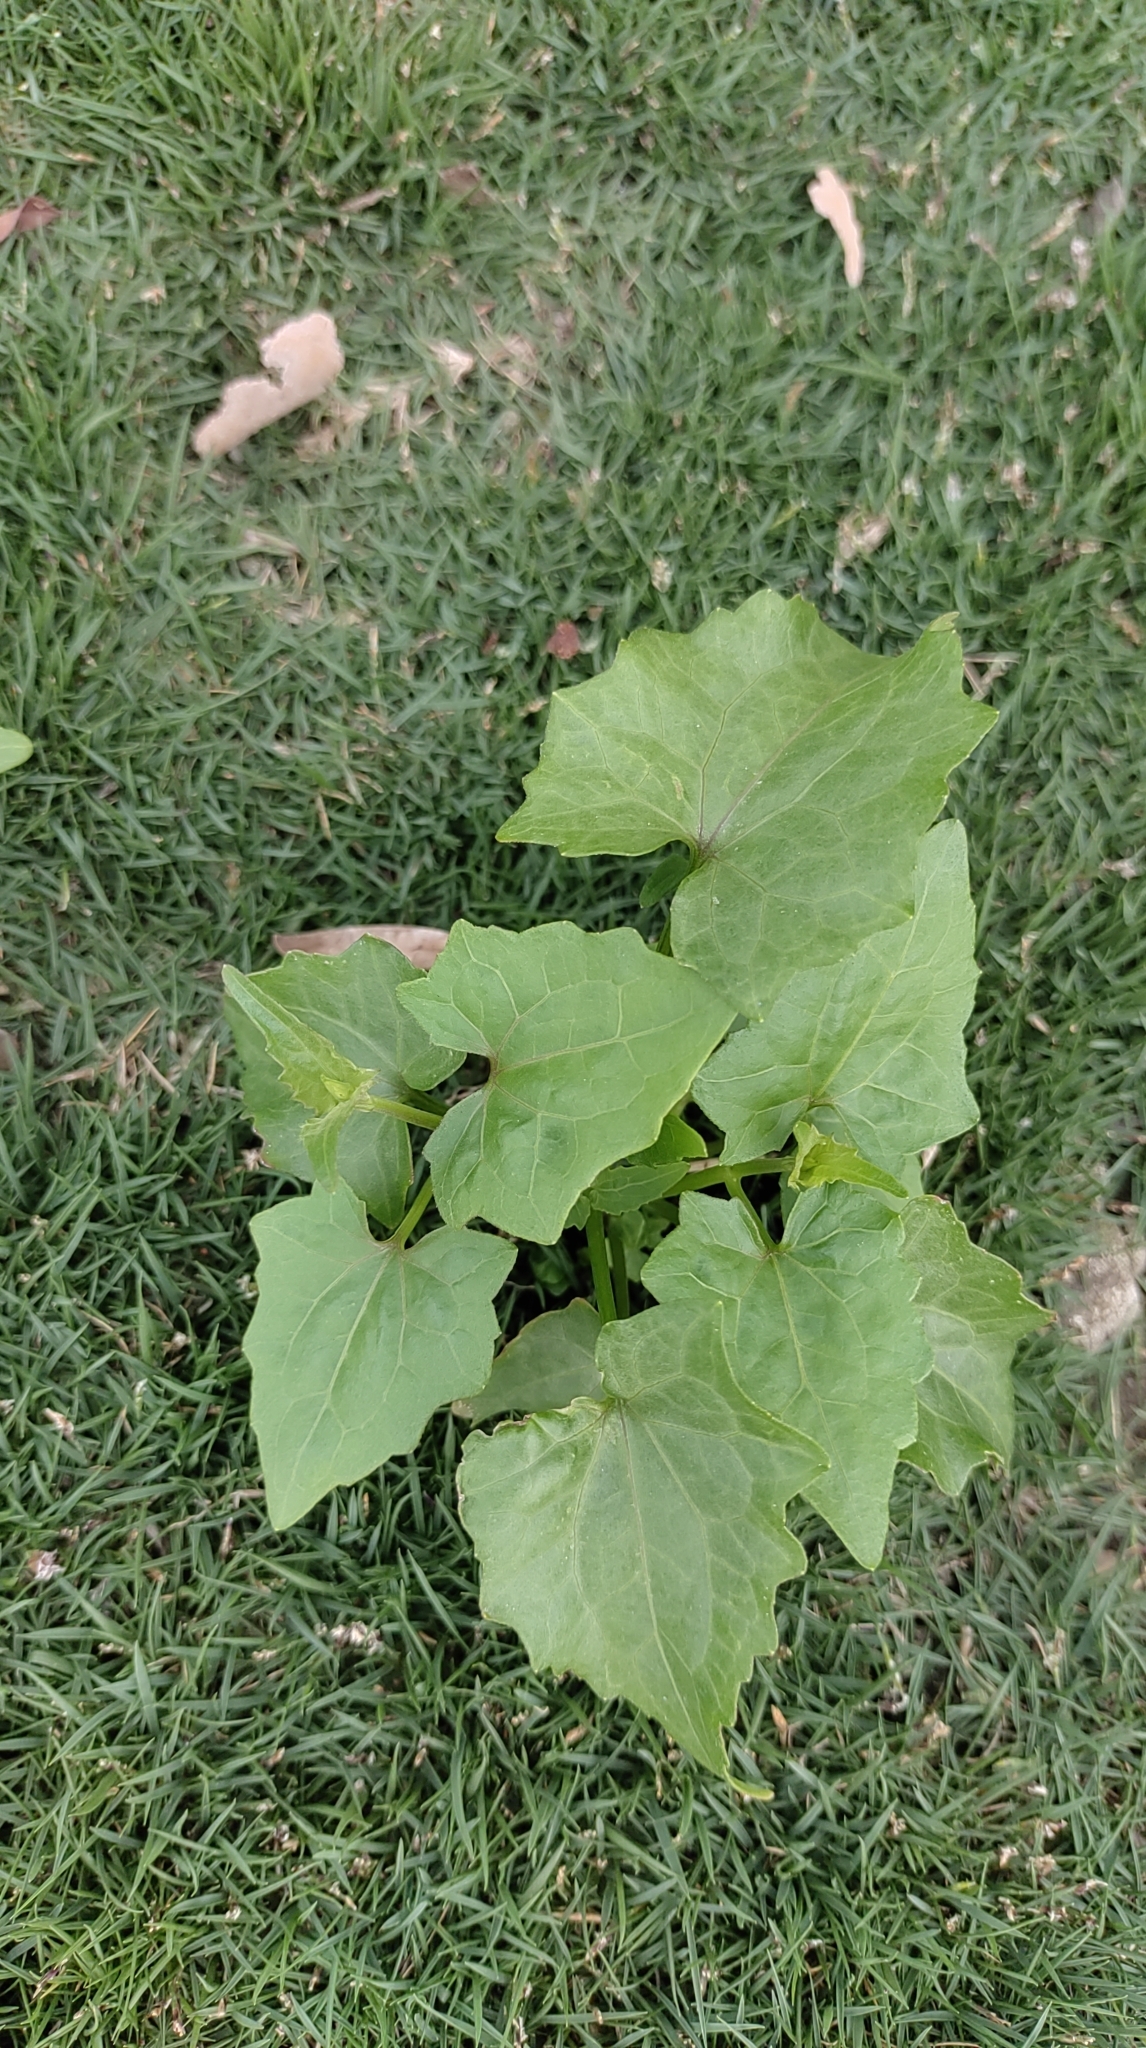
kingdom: Plantae
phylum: Tracheophyta
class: Magnoliopsida
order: Asterales
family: Asteraceae
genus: Mikania
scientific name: Mikania micrantha
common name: Mile-a-minute
